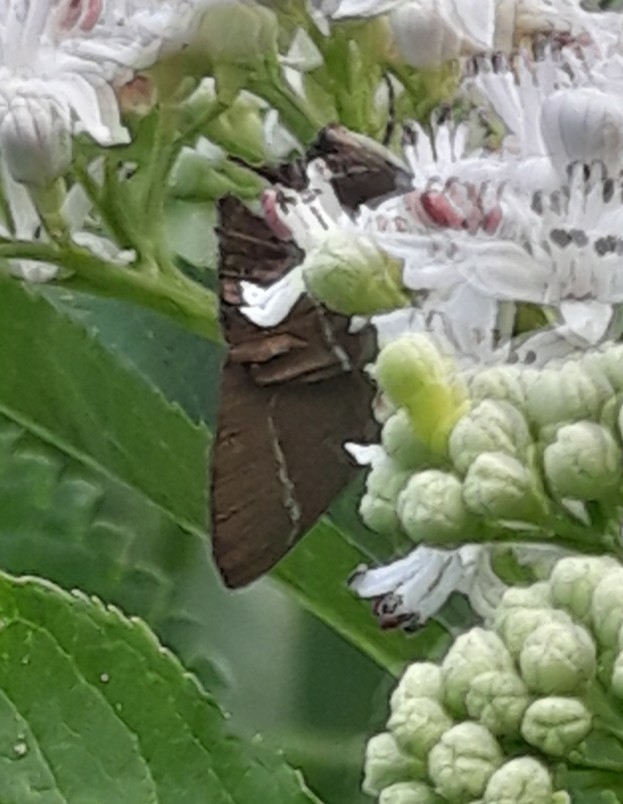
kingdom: Animalia
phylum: Arthropoda
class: Insecta
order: Lepidoptera
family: Lycaenidae
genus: Satyrium
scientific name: Satyrium w-album
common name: White-letter hairstreak
